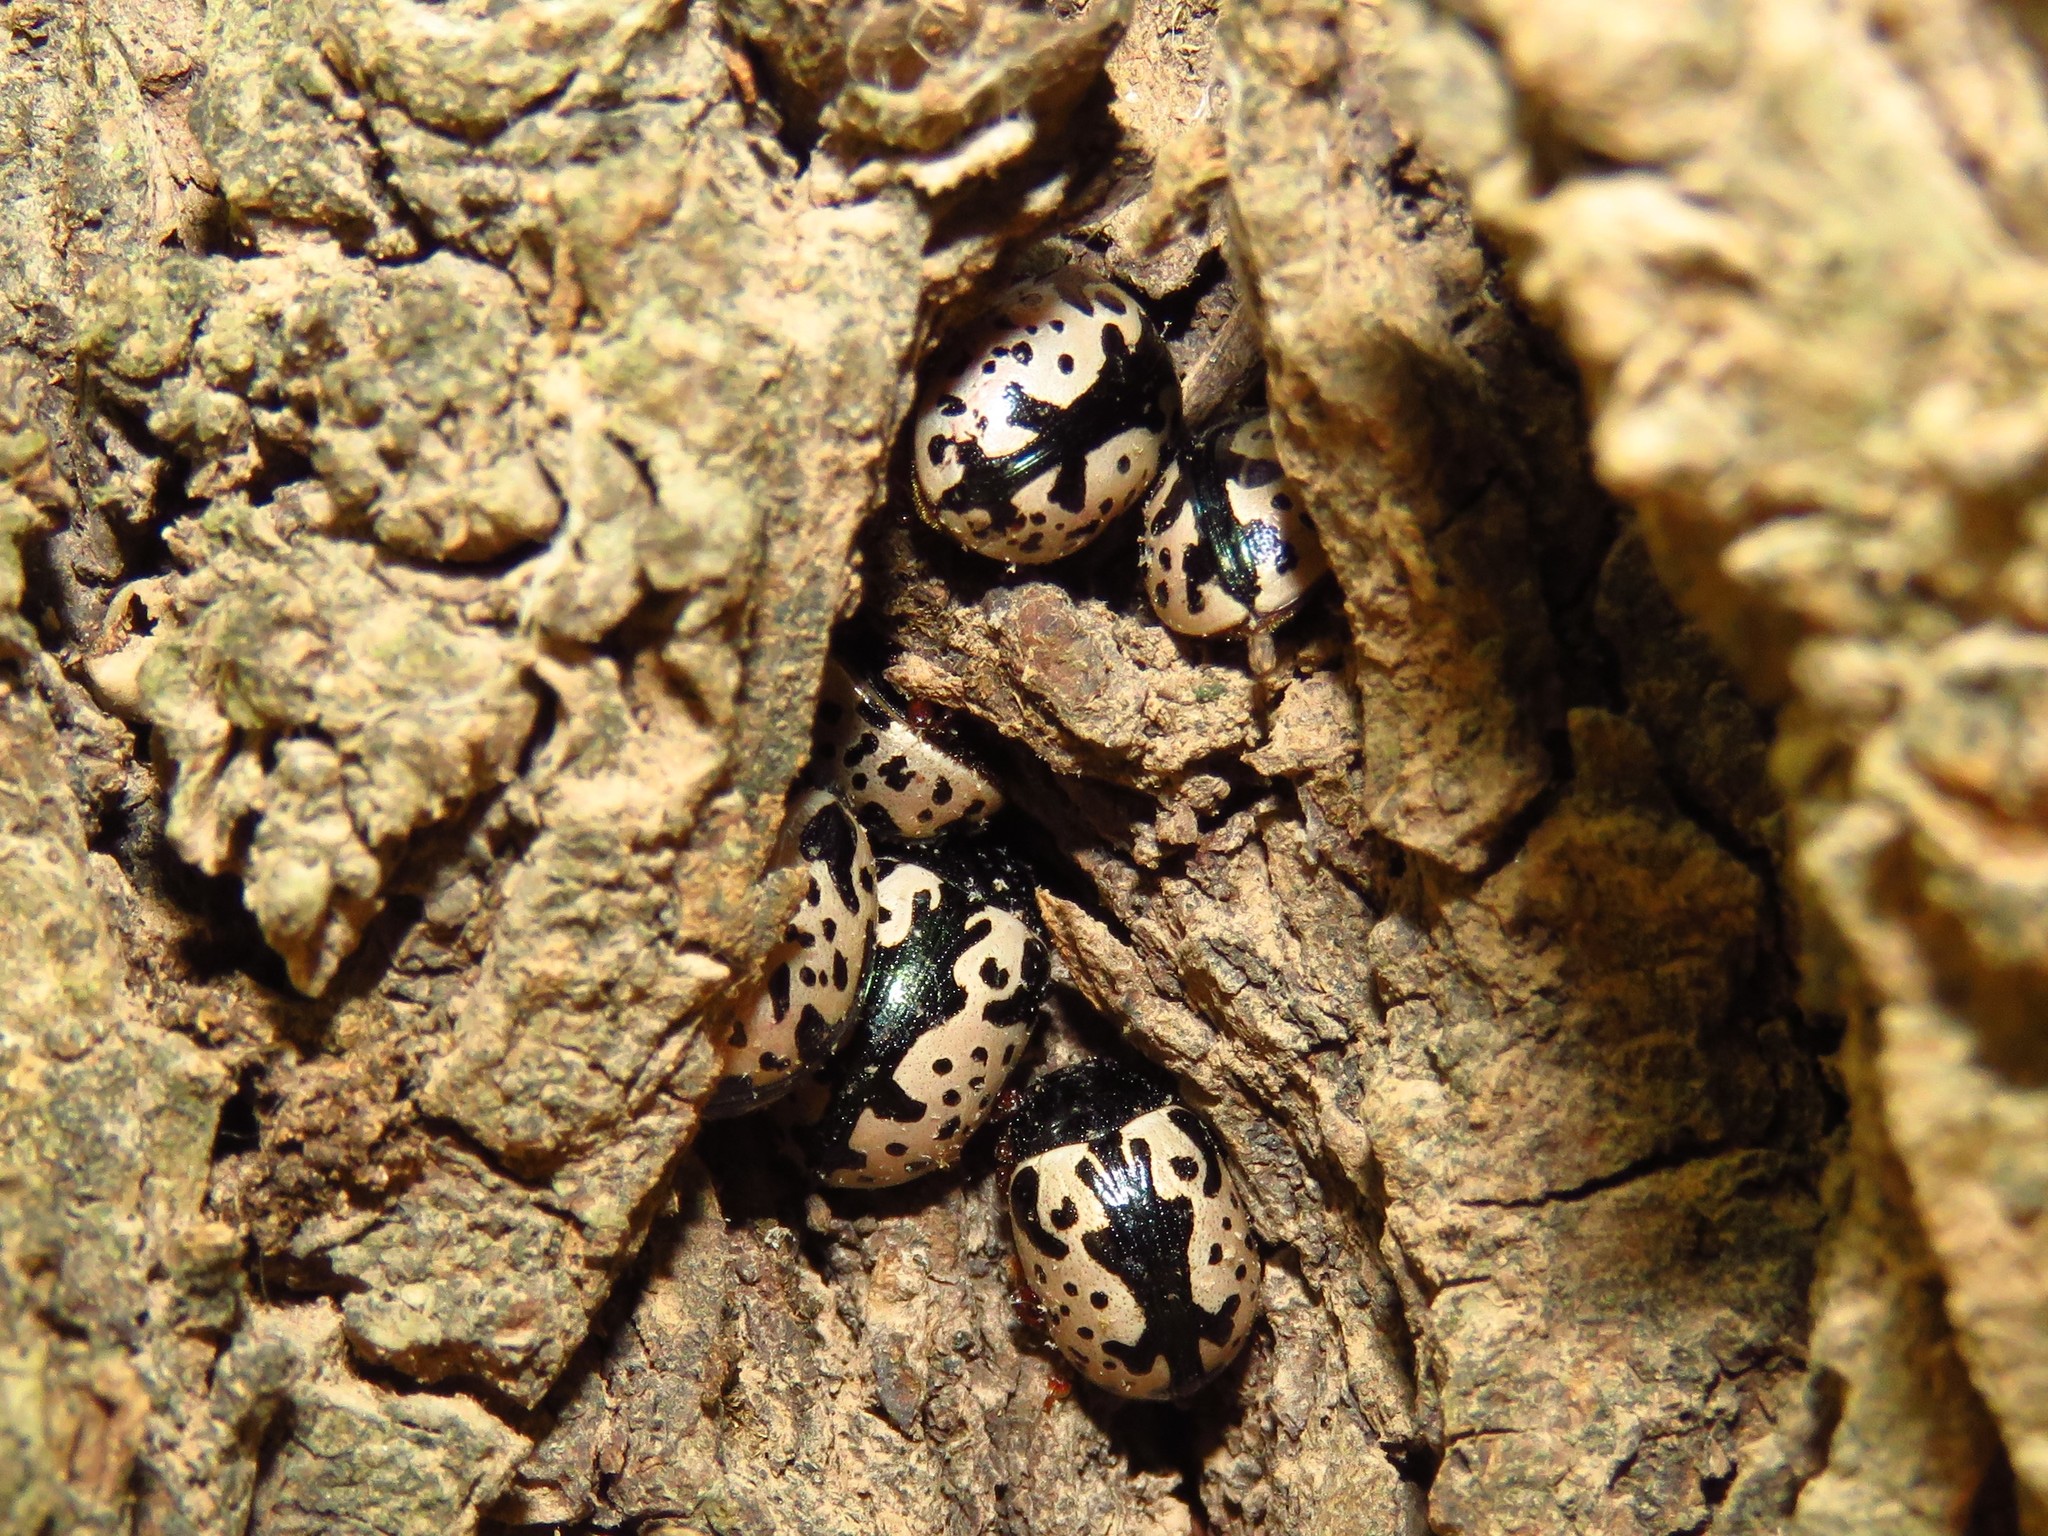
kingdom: Animalia
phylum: Arthropoda
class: Insecta
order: Coleoptera
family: Chrysomelidae
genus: Calligrapha
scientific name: Calligrapha scalaris
